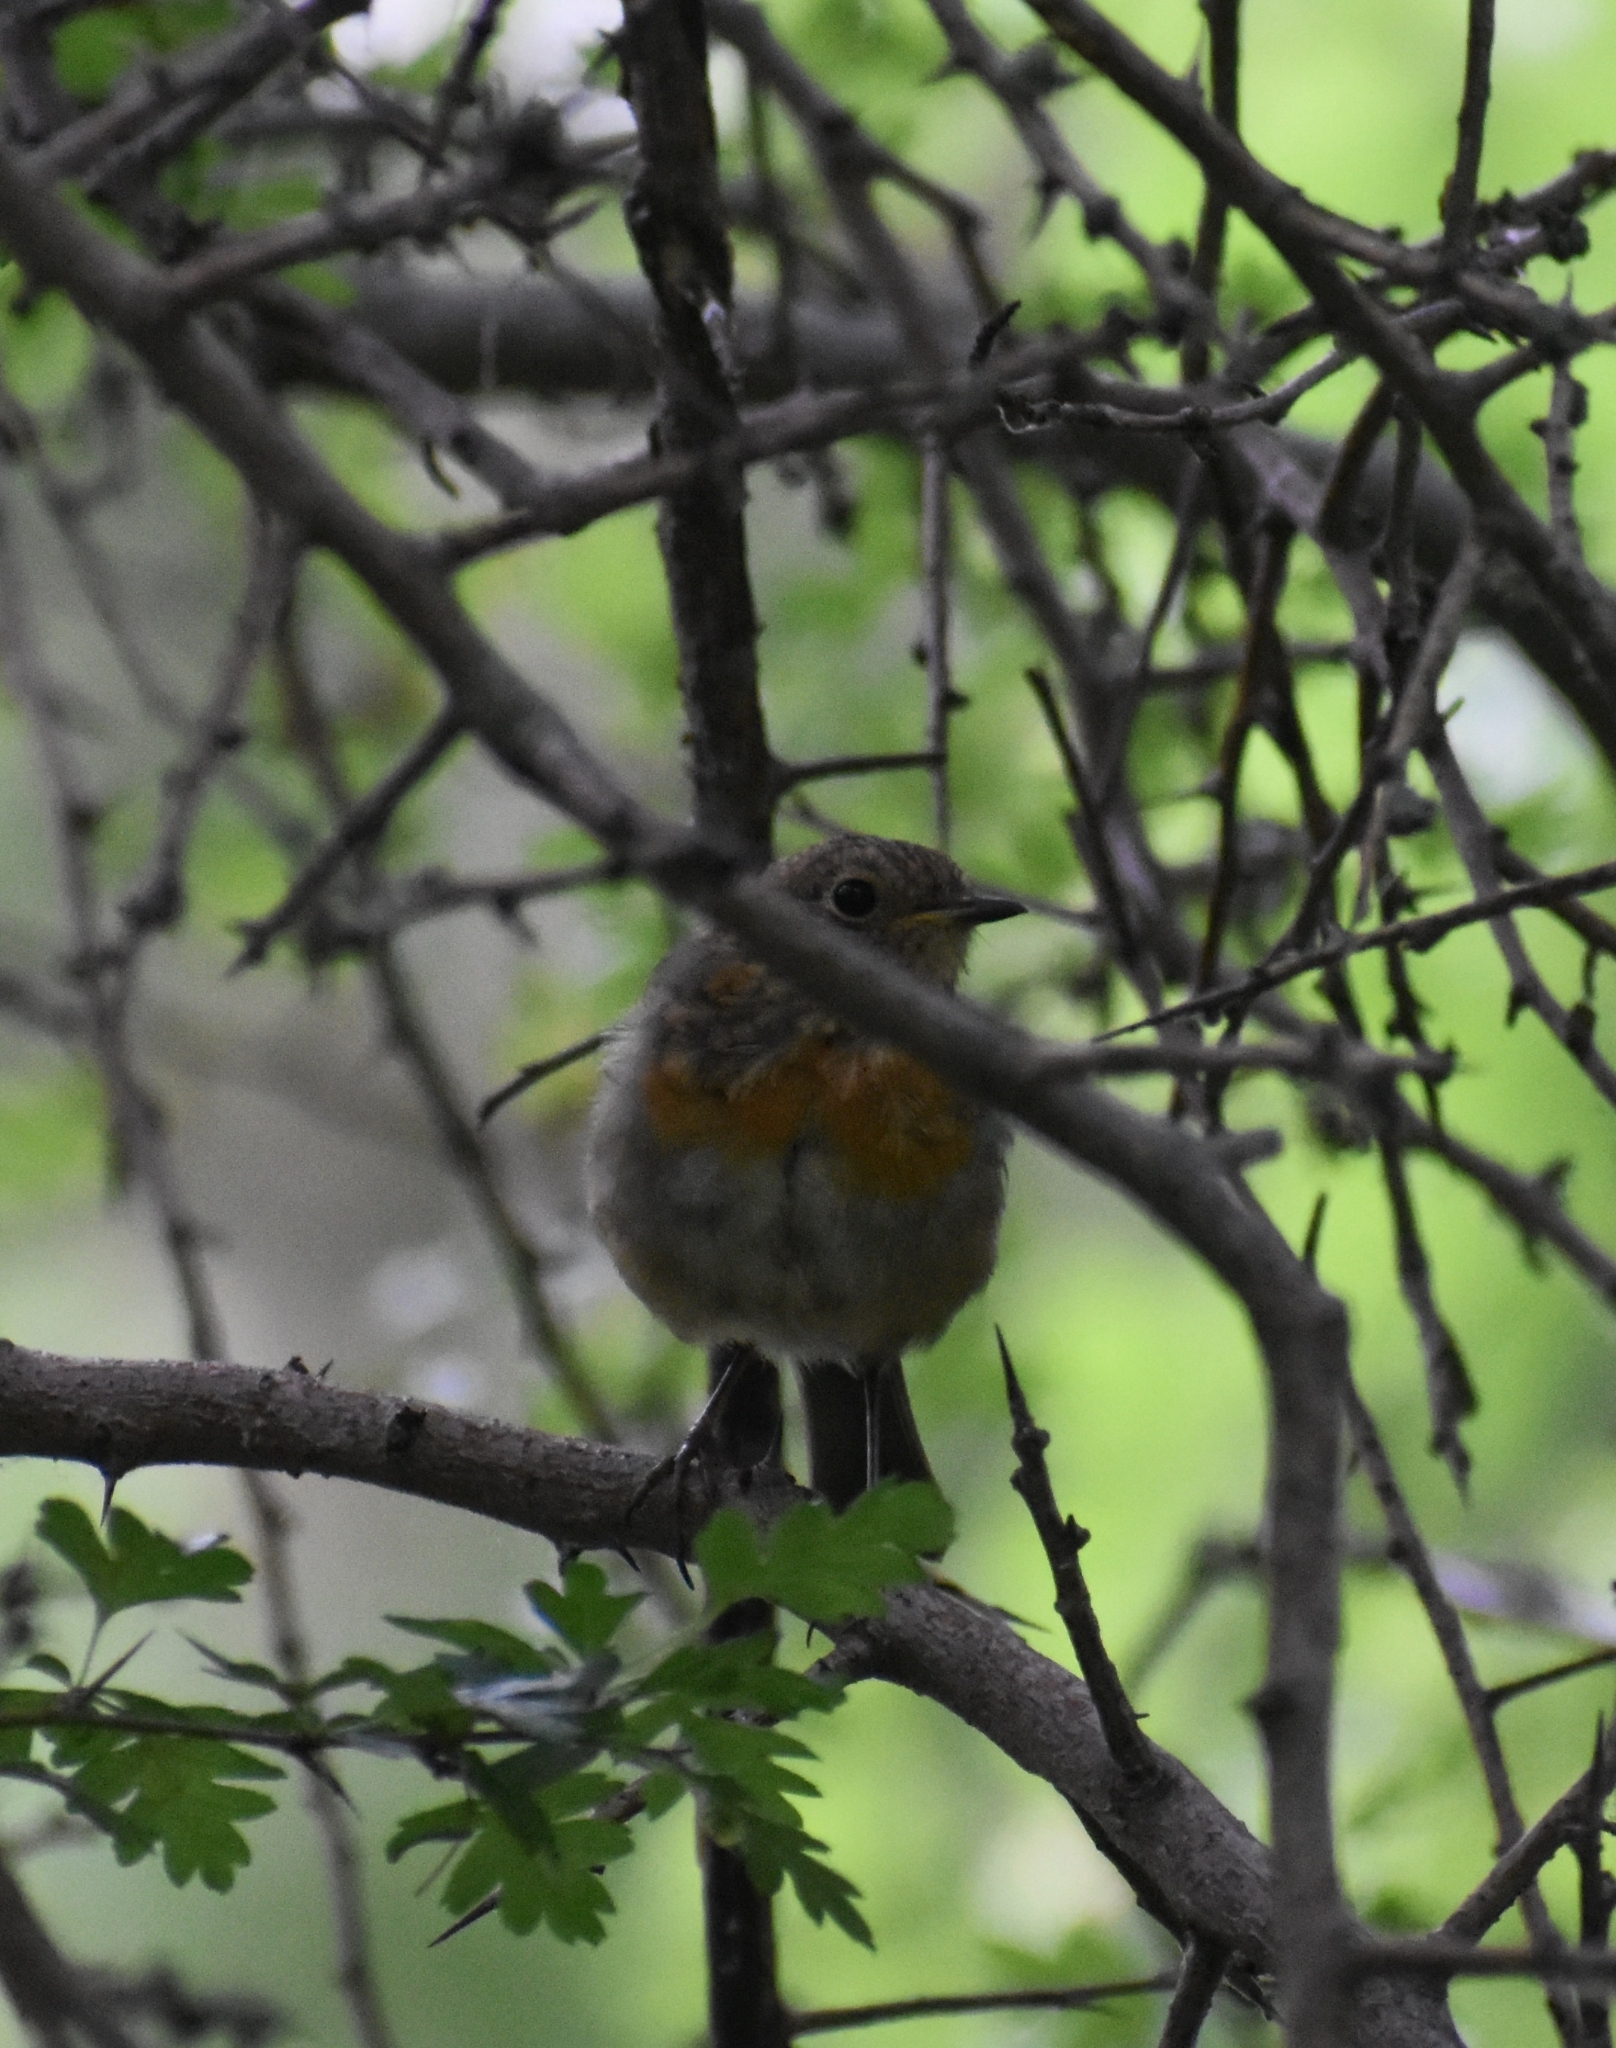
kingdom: Animalia
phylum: Chordata
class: Aves
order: Passeriformes
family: Muscicapidae
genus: Erithacus
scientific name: Erithacus rubecula
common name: European robin
